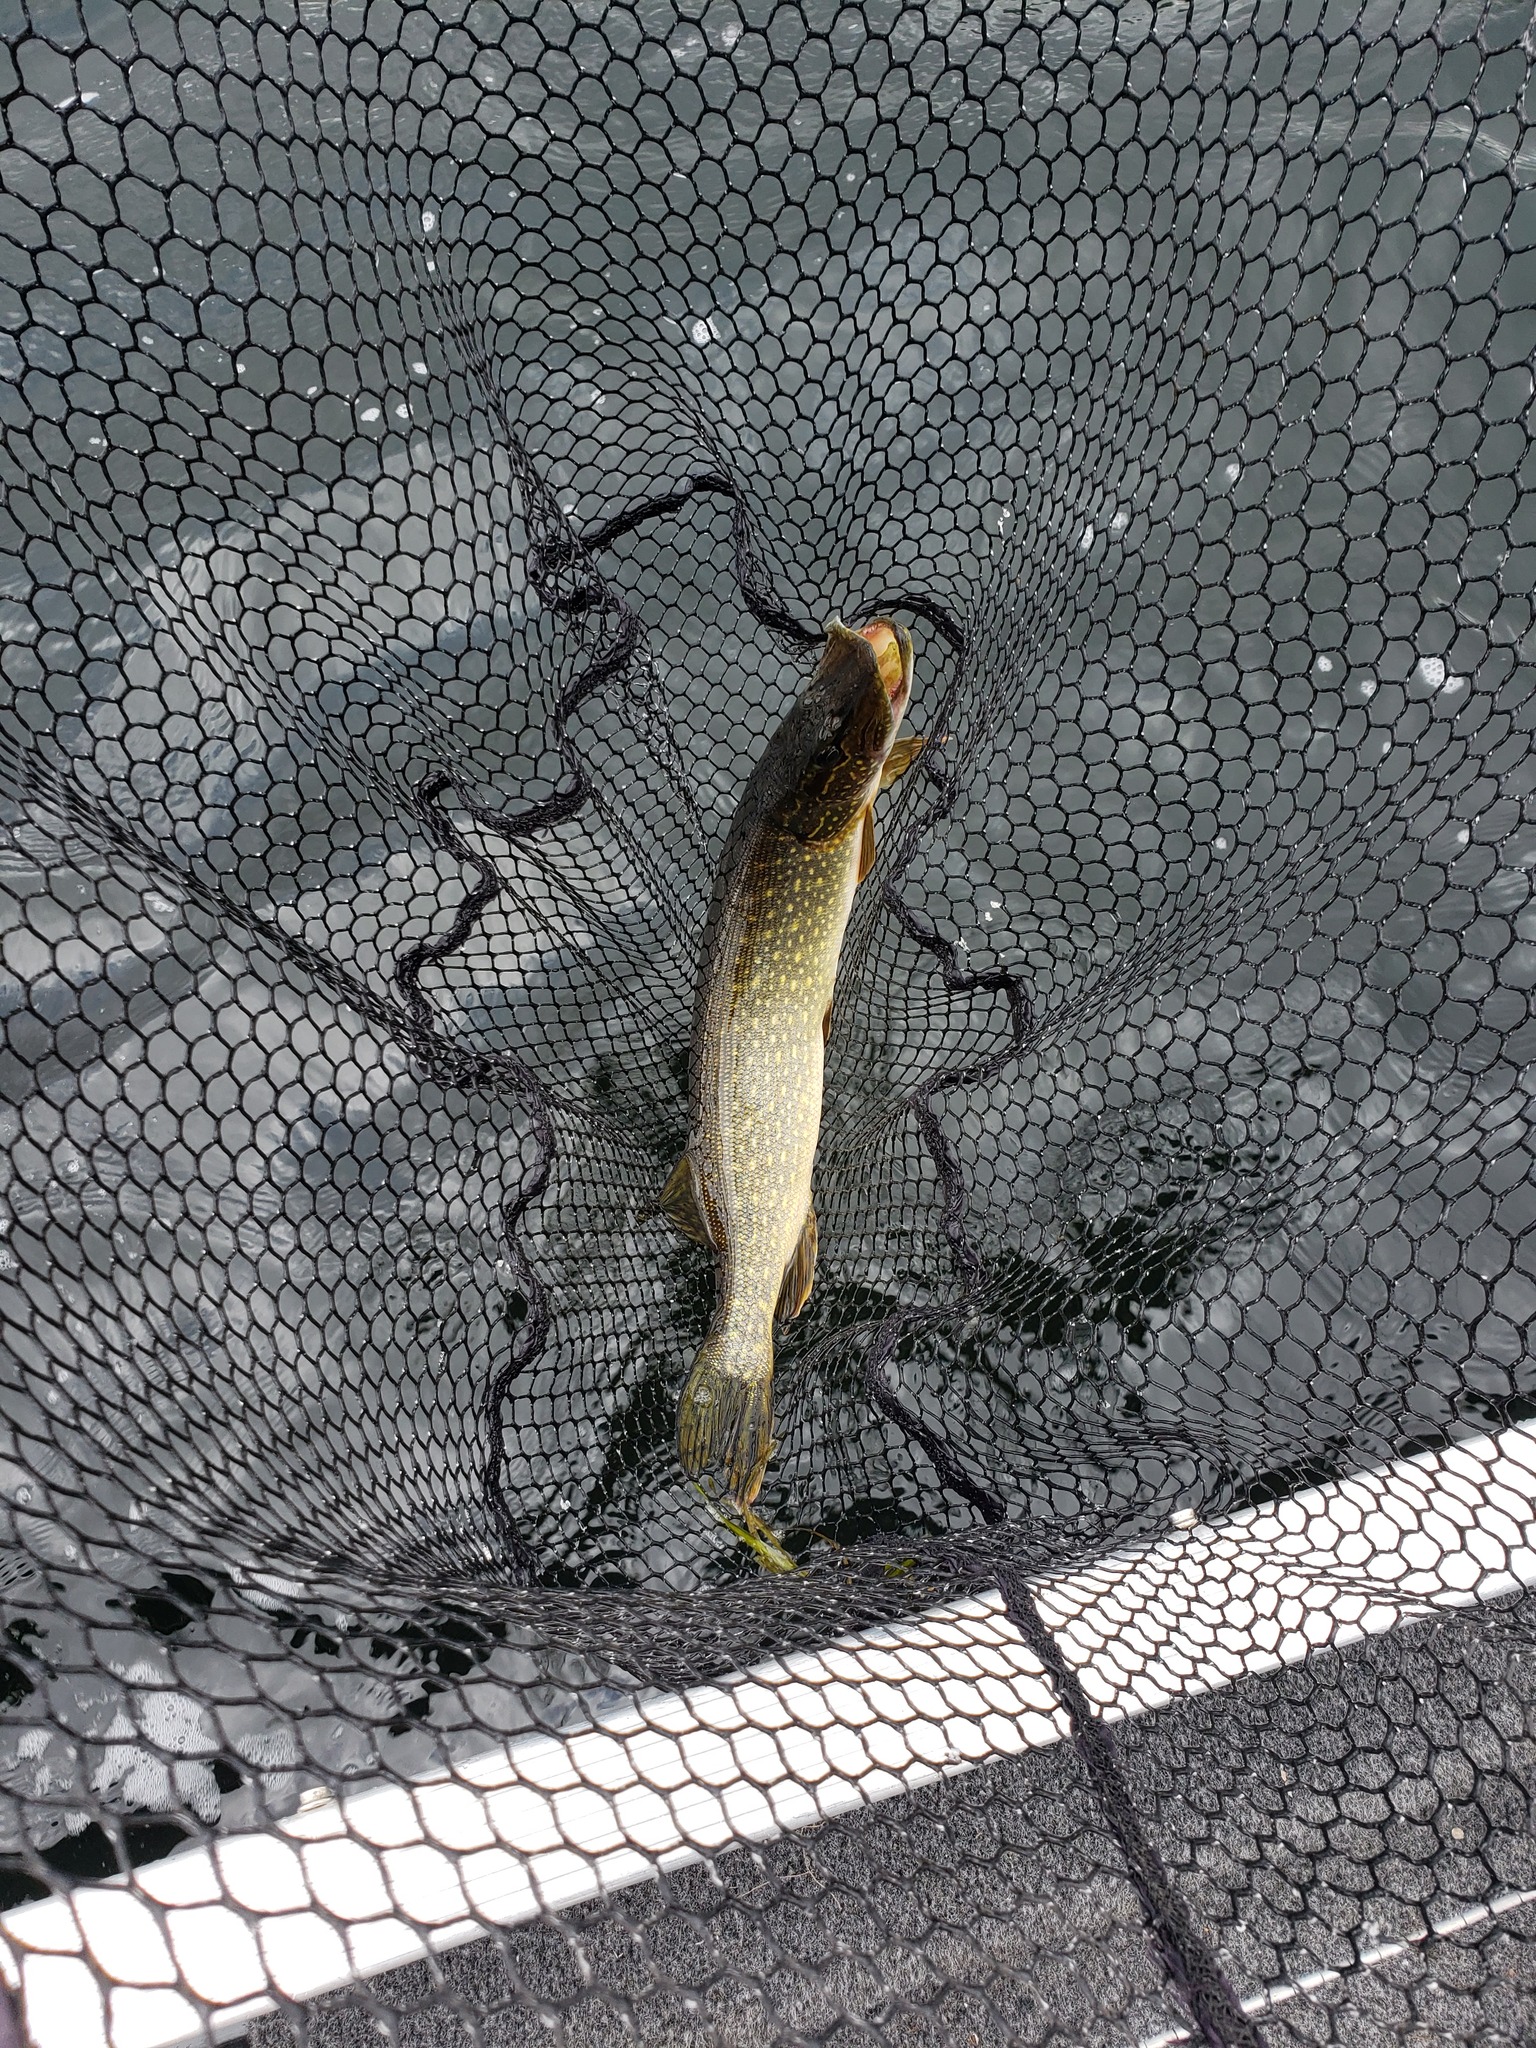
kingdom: Animalia
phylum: Chordata
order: Esociformes
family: Esocidae
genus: Esox
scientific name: Esox lucius
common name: Northern pike
